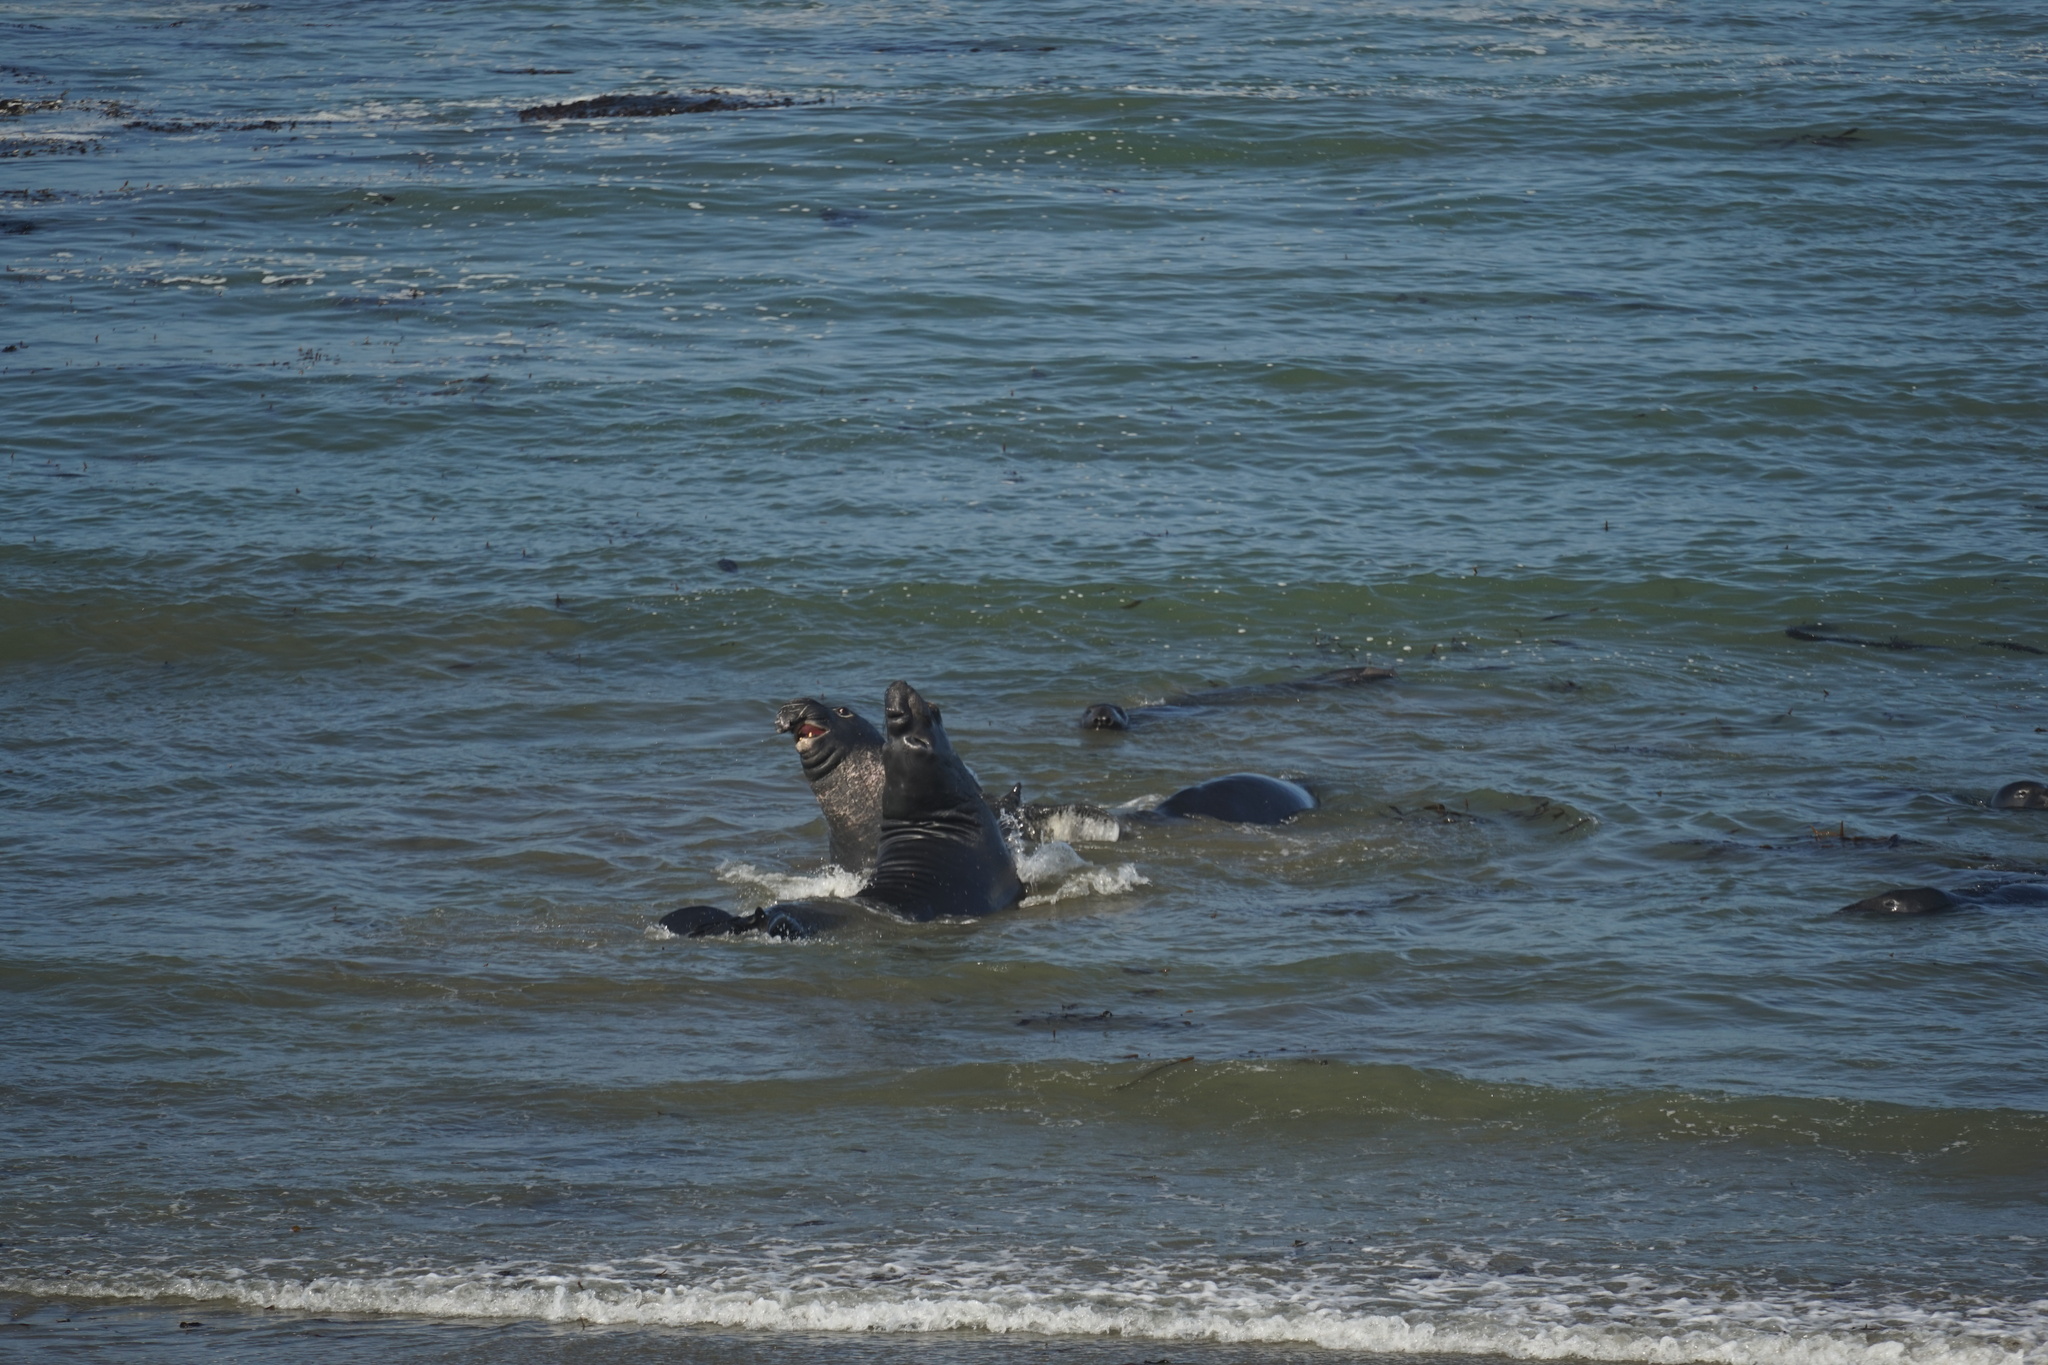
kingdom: Animalia
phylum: Chordata
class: Mammalia
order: Carnivora
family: Phocidae
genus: Mirounga
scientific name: Mirounga angustirostris
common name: Northern elephant seal
